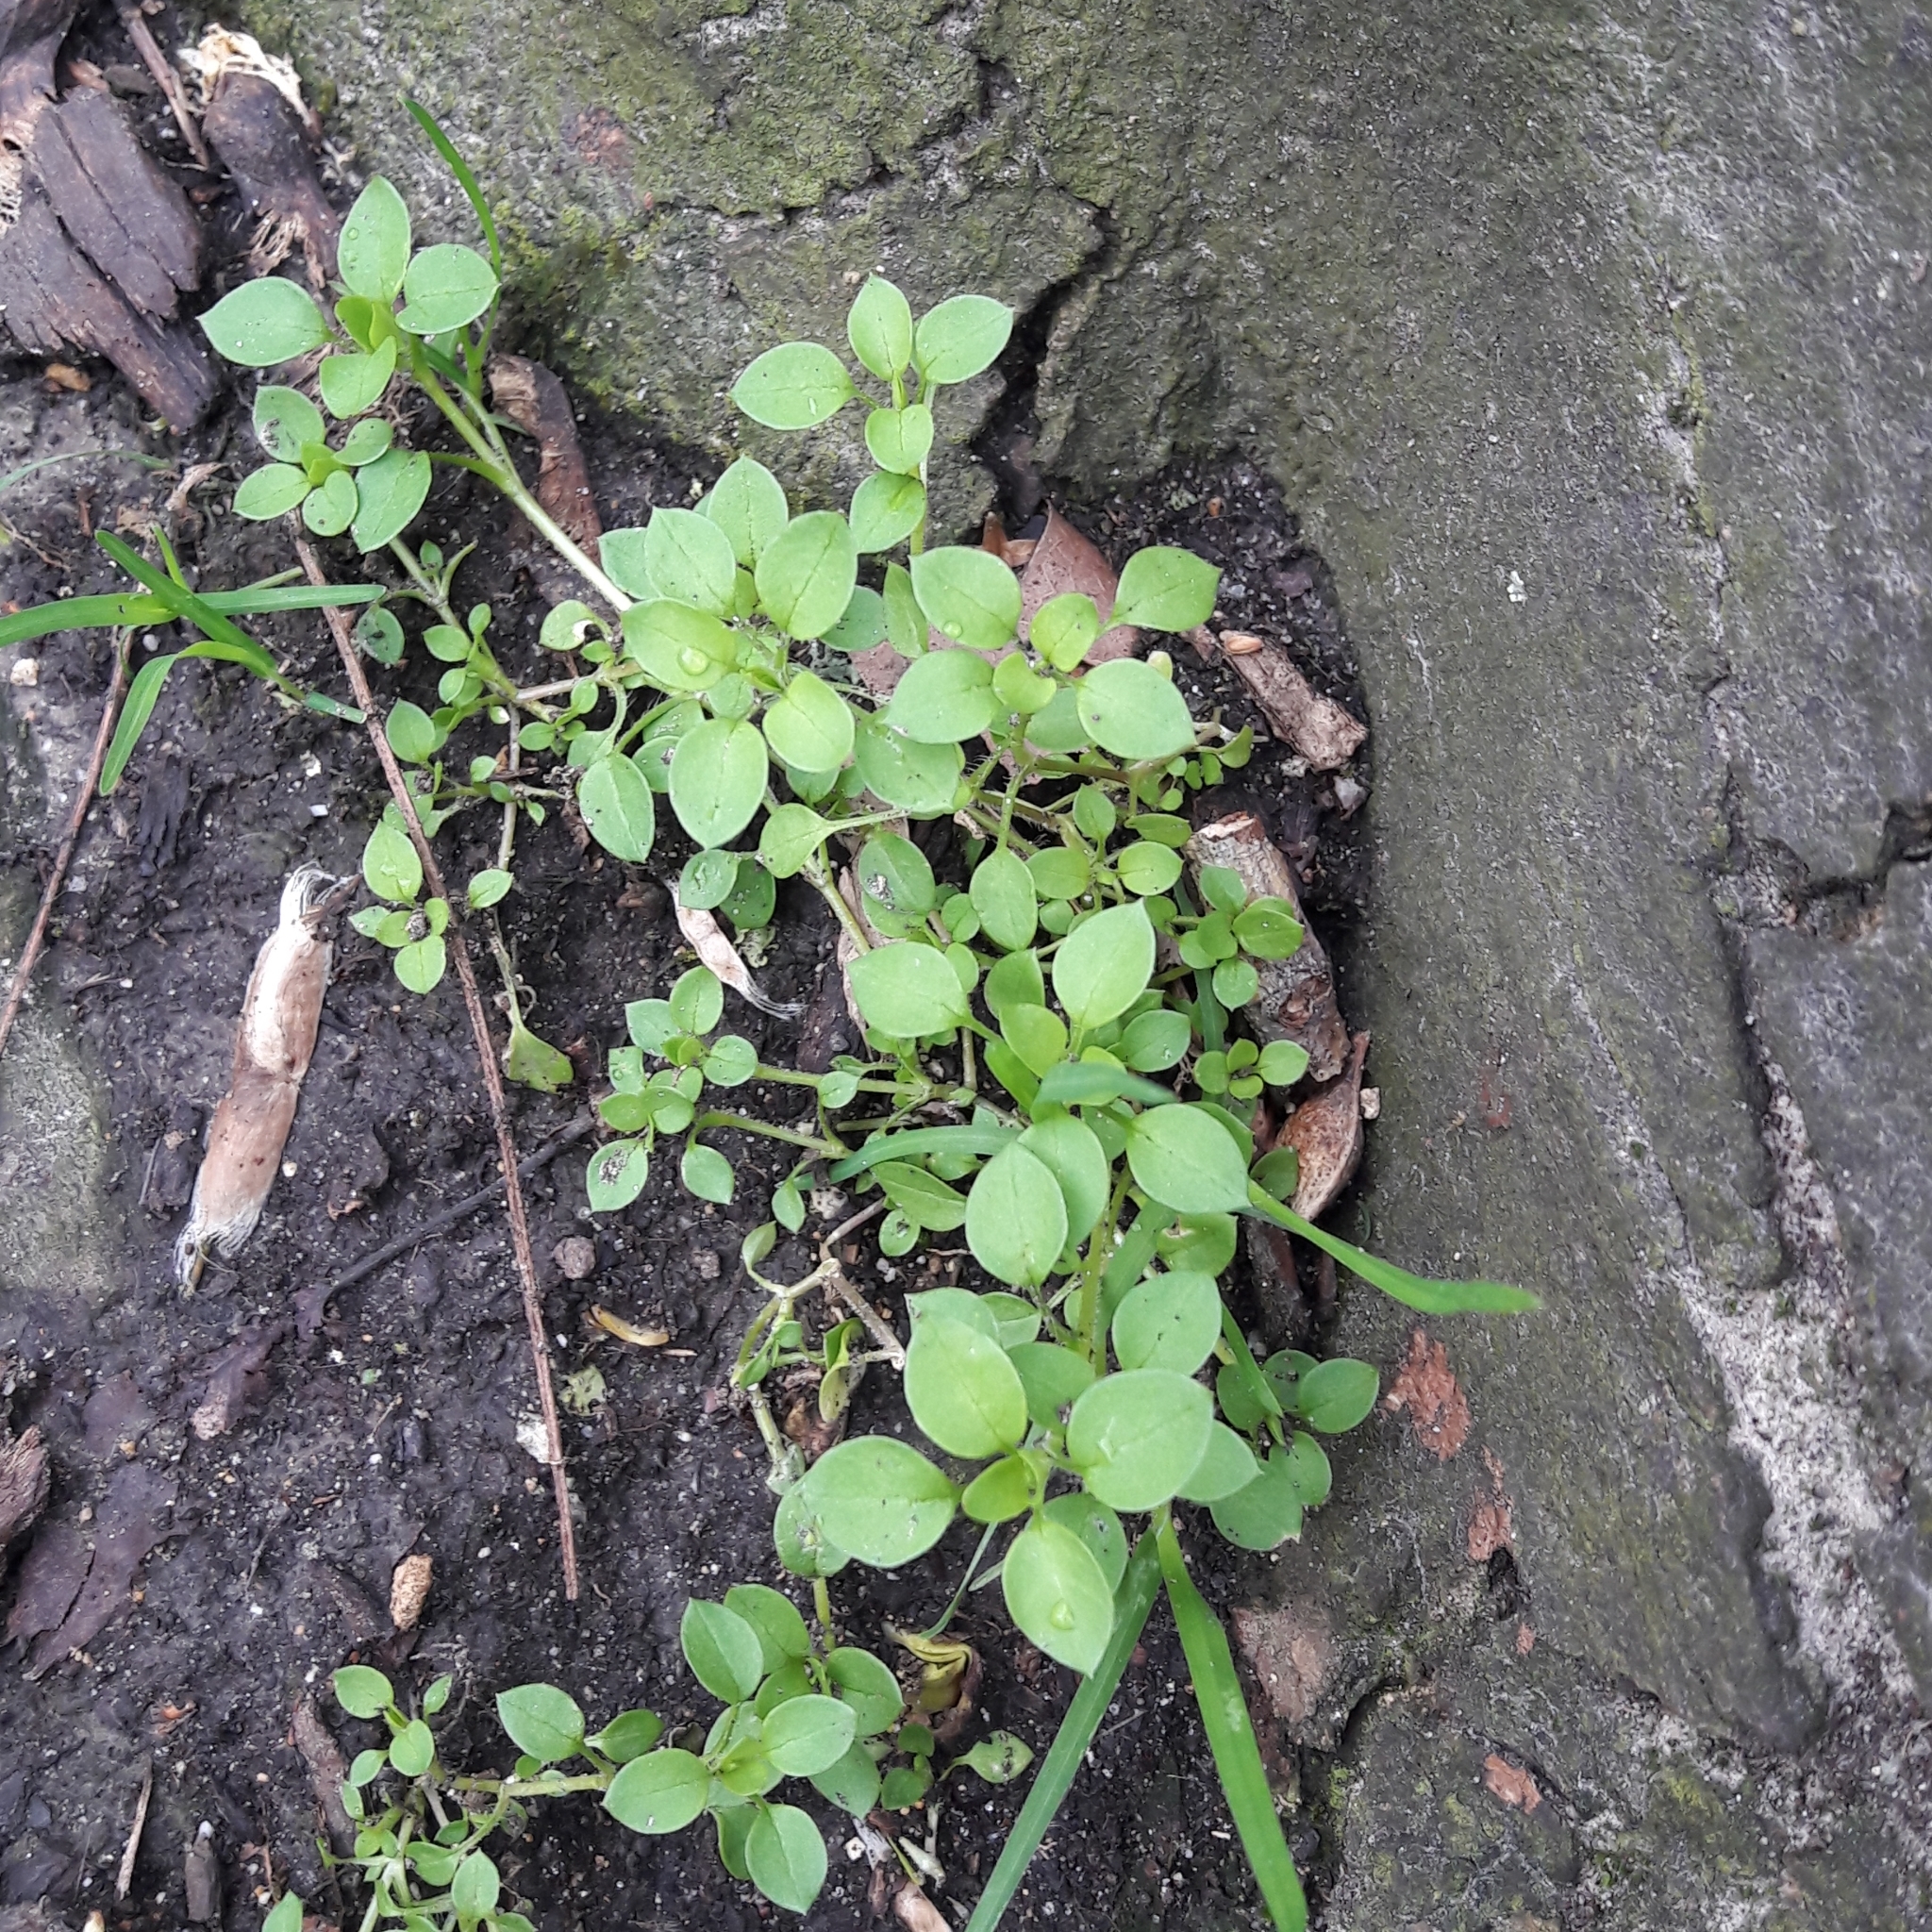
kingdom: Plantae
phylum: Tracheophyta
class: Magnoliopsida
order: Caryophyllales
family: Caryophyllaceae
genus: Stellaria
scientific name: Stellaria media
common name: Common chickweed
